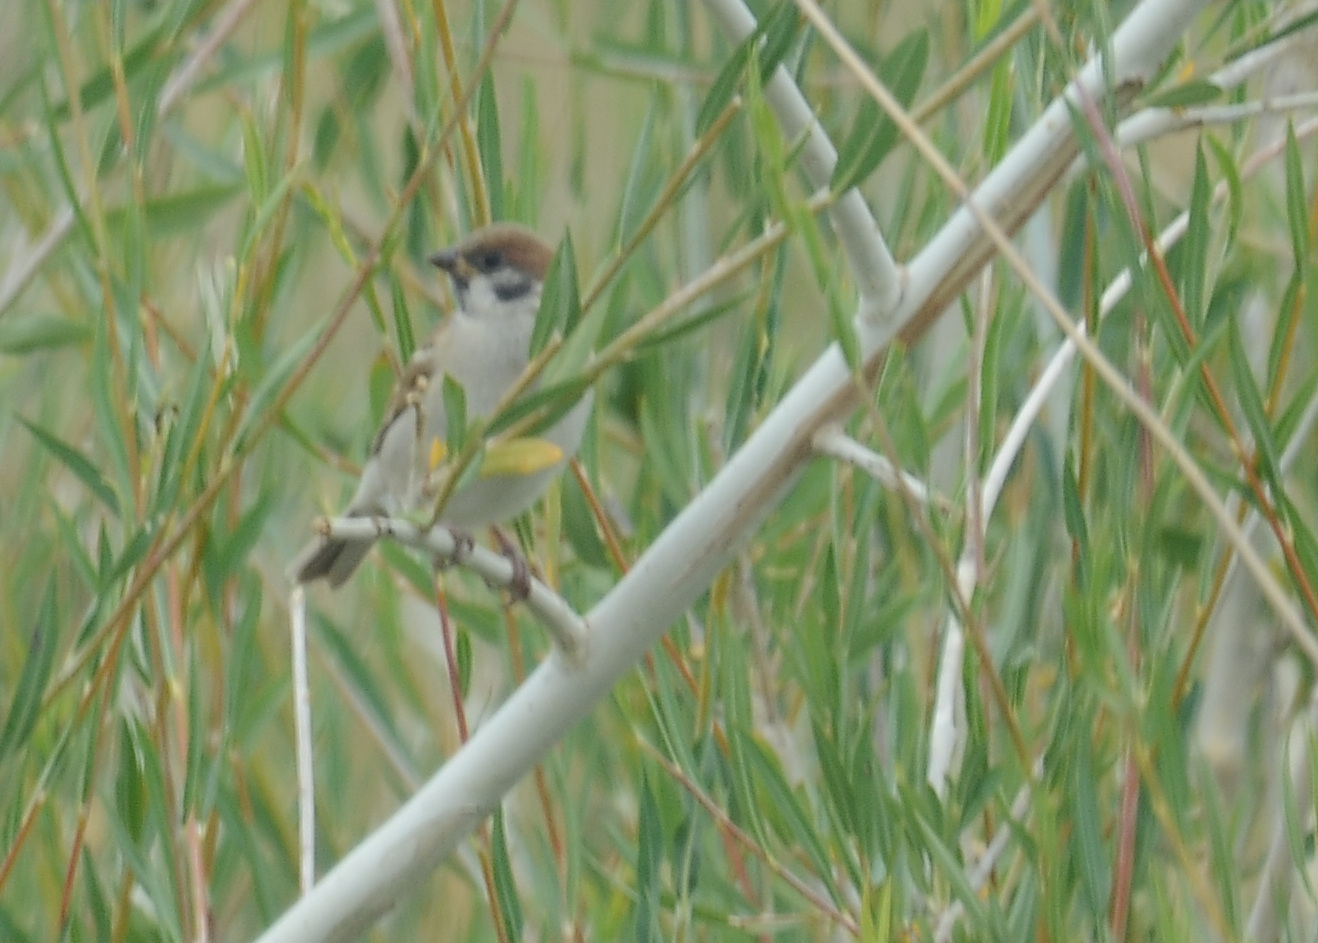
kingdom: Animalia
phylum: Chordata
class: Aves
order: Passeriformes
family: Passeridae
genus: Passer
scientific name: Passer montanus
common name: Eurasian tree sparrow
